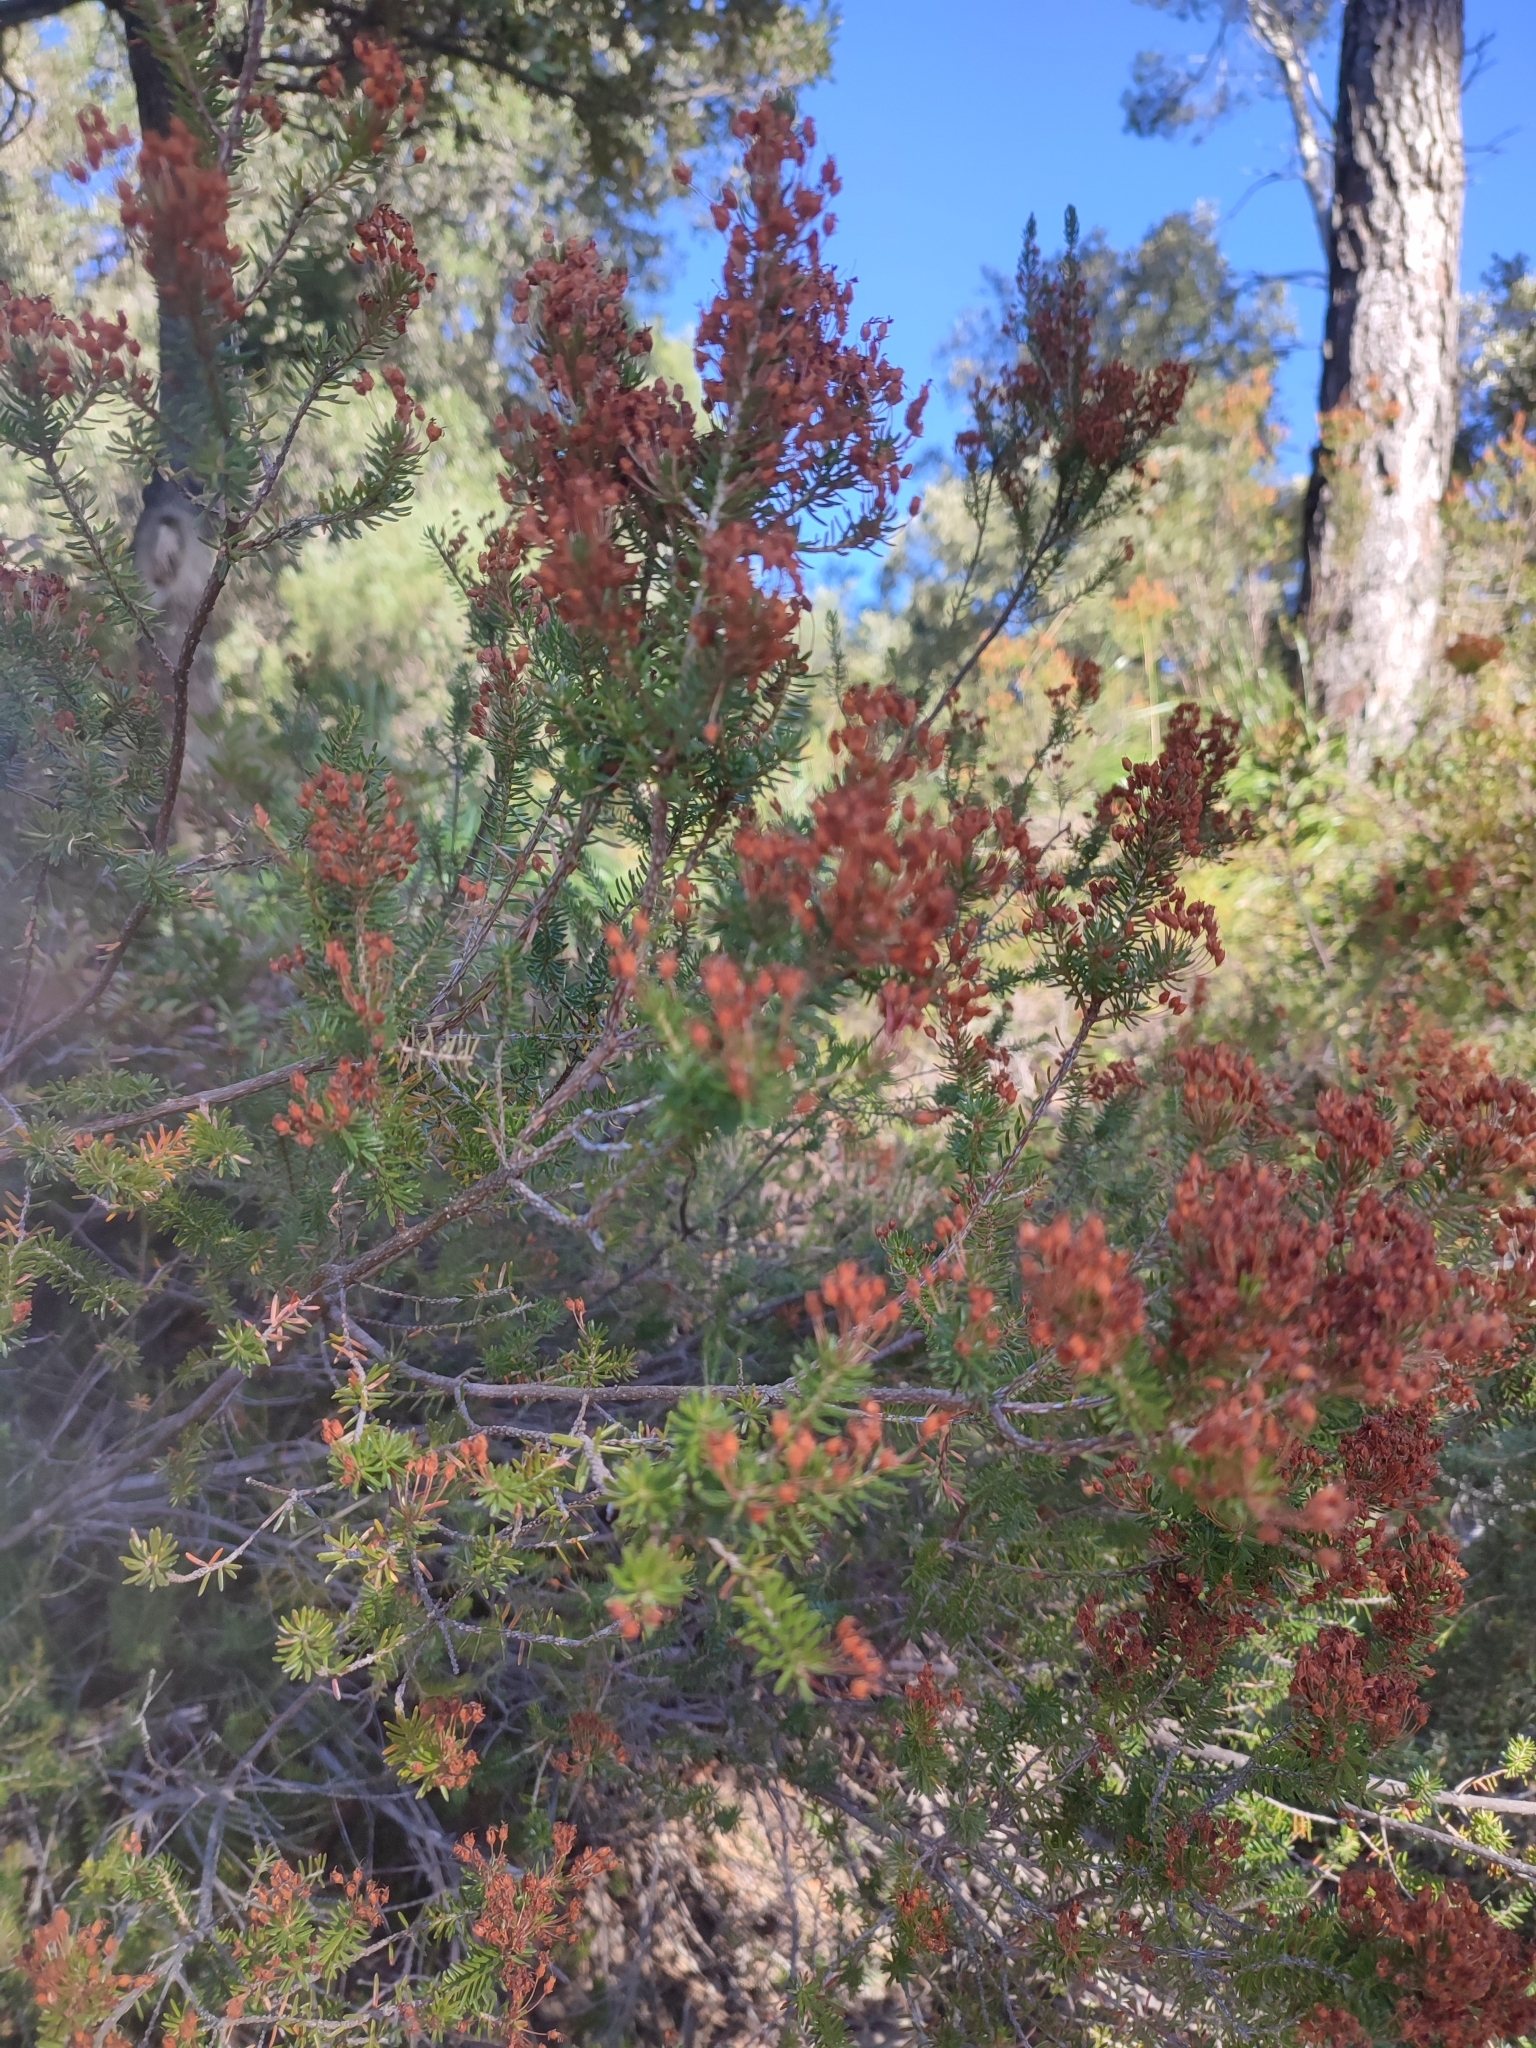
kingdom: Plantae
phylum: Tracheophyta
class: Magnoliopsida
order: Ericales
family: Ericaceae
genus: Erica
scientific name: Erica multiflora
